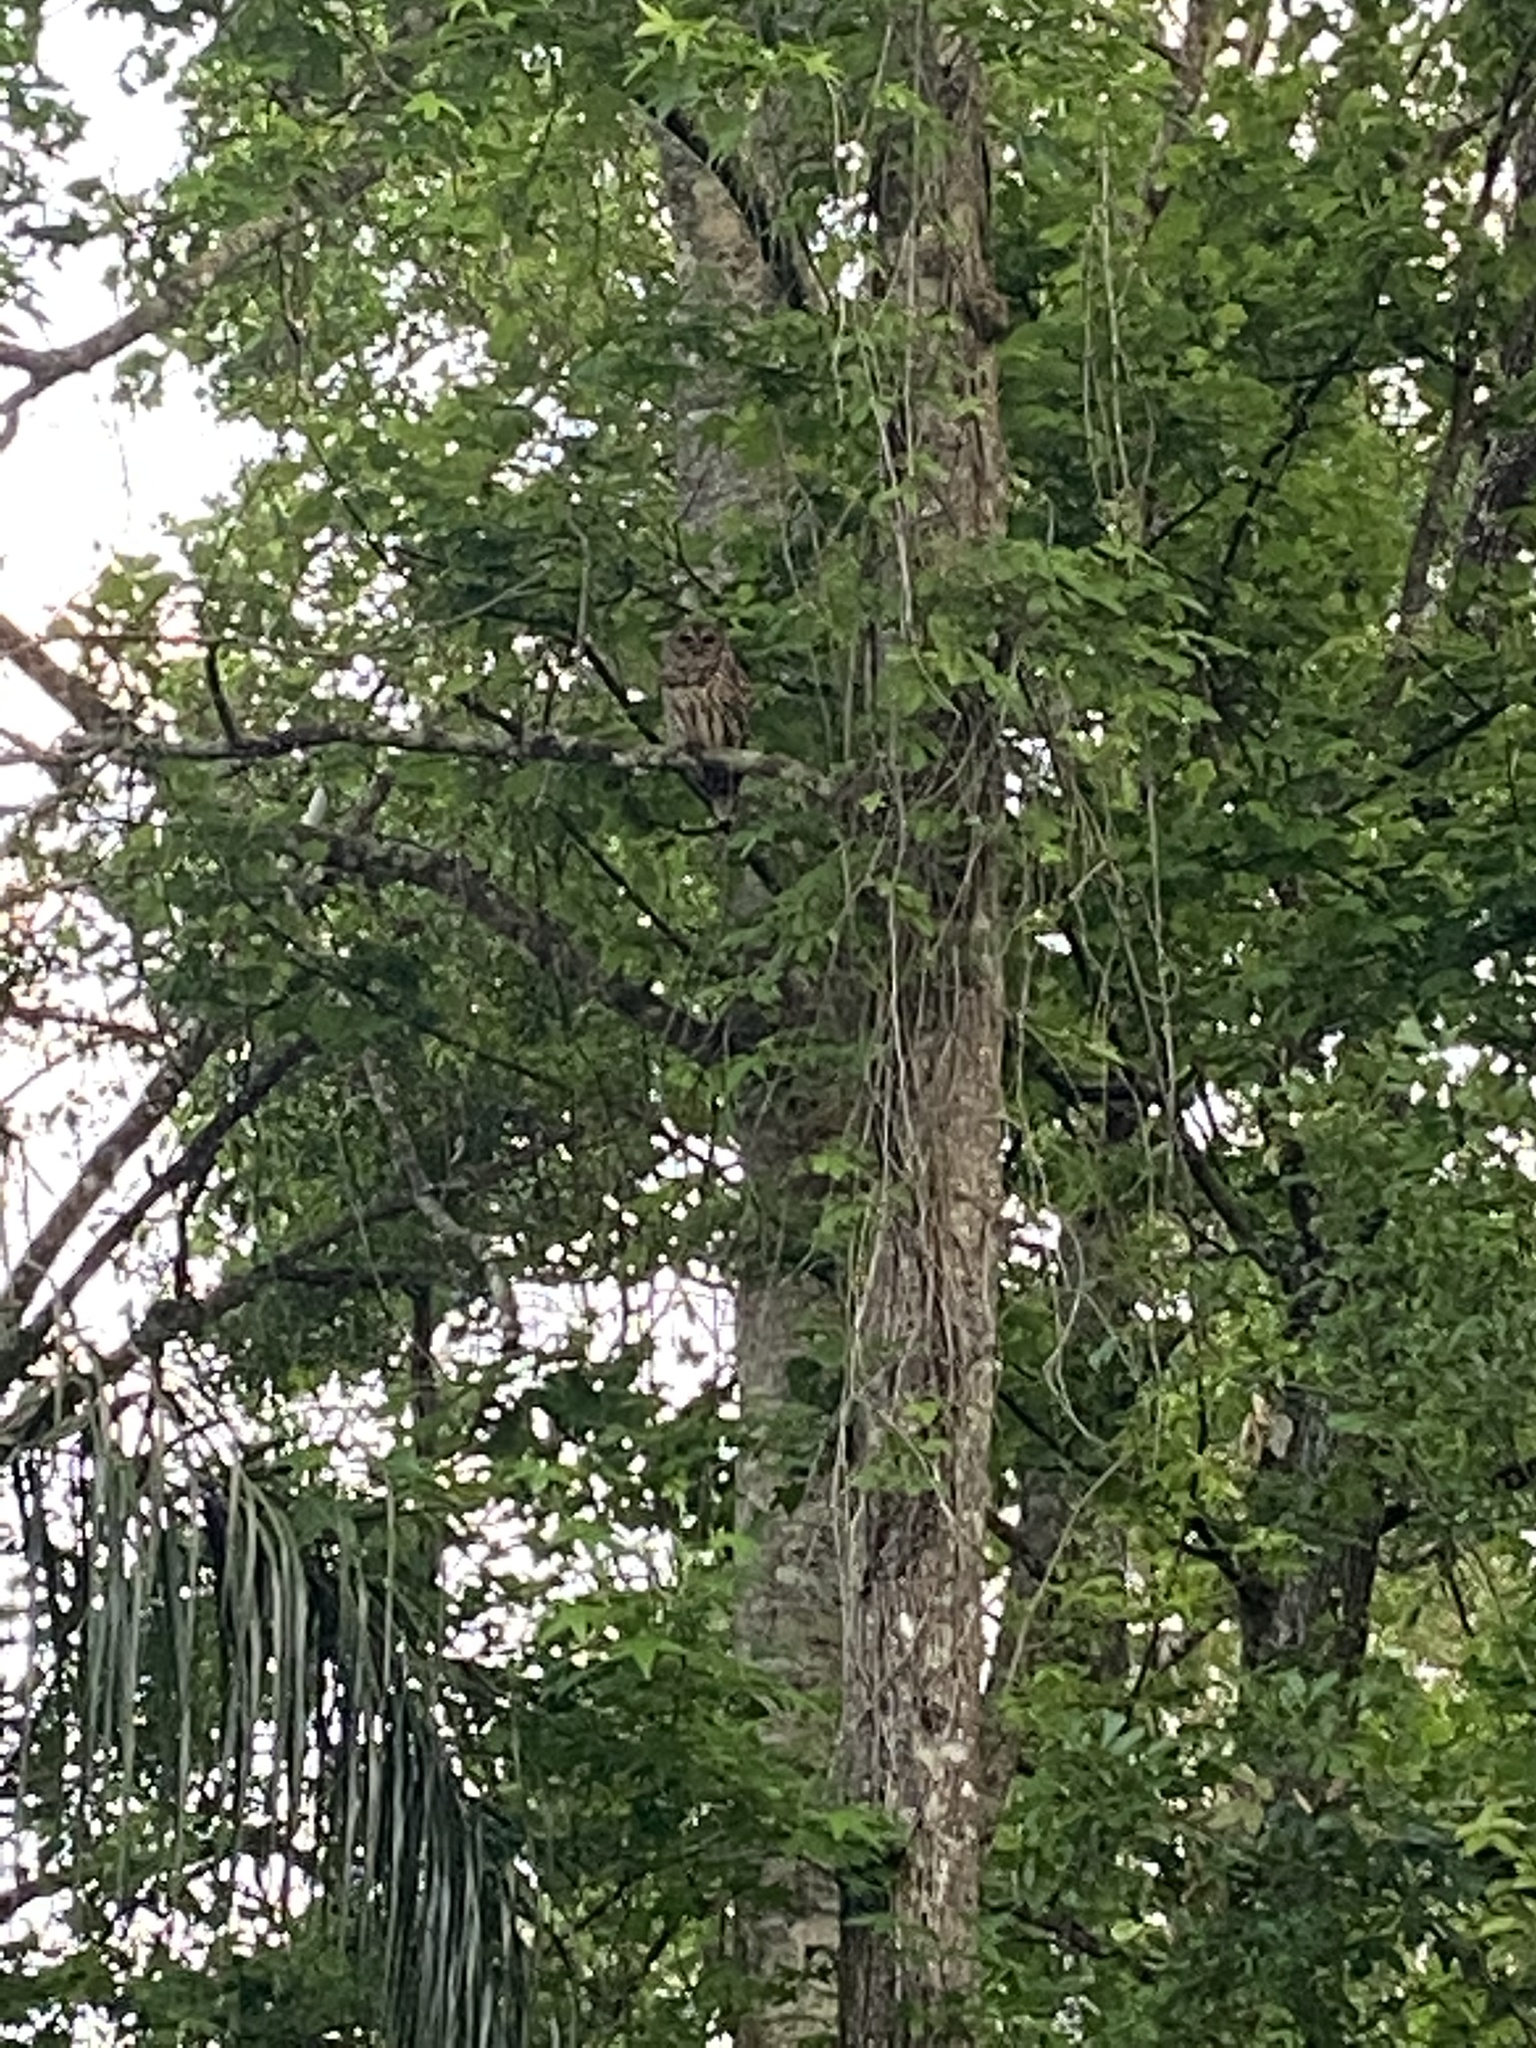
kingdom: Animalia
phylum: Chordata
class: Aves
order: Strigiformes
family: Strigidae
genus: Strix
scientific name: Strix varia
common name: Barred owl
